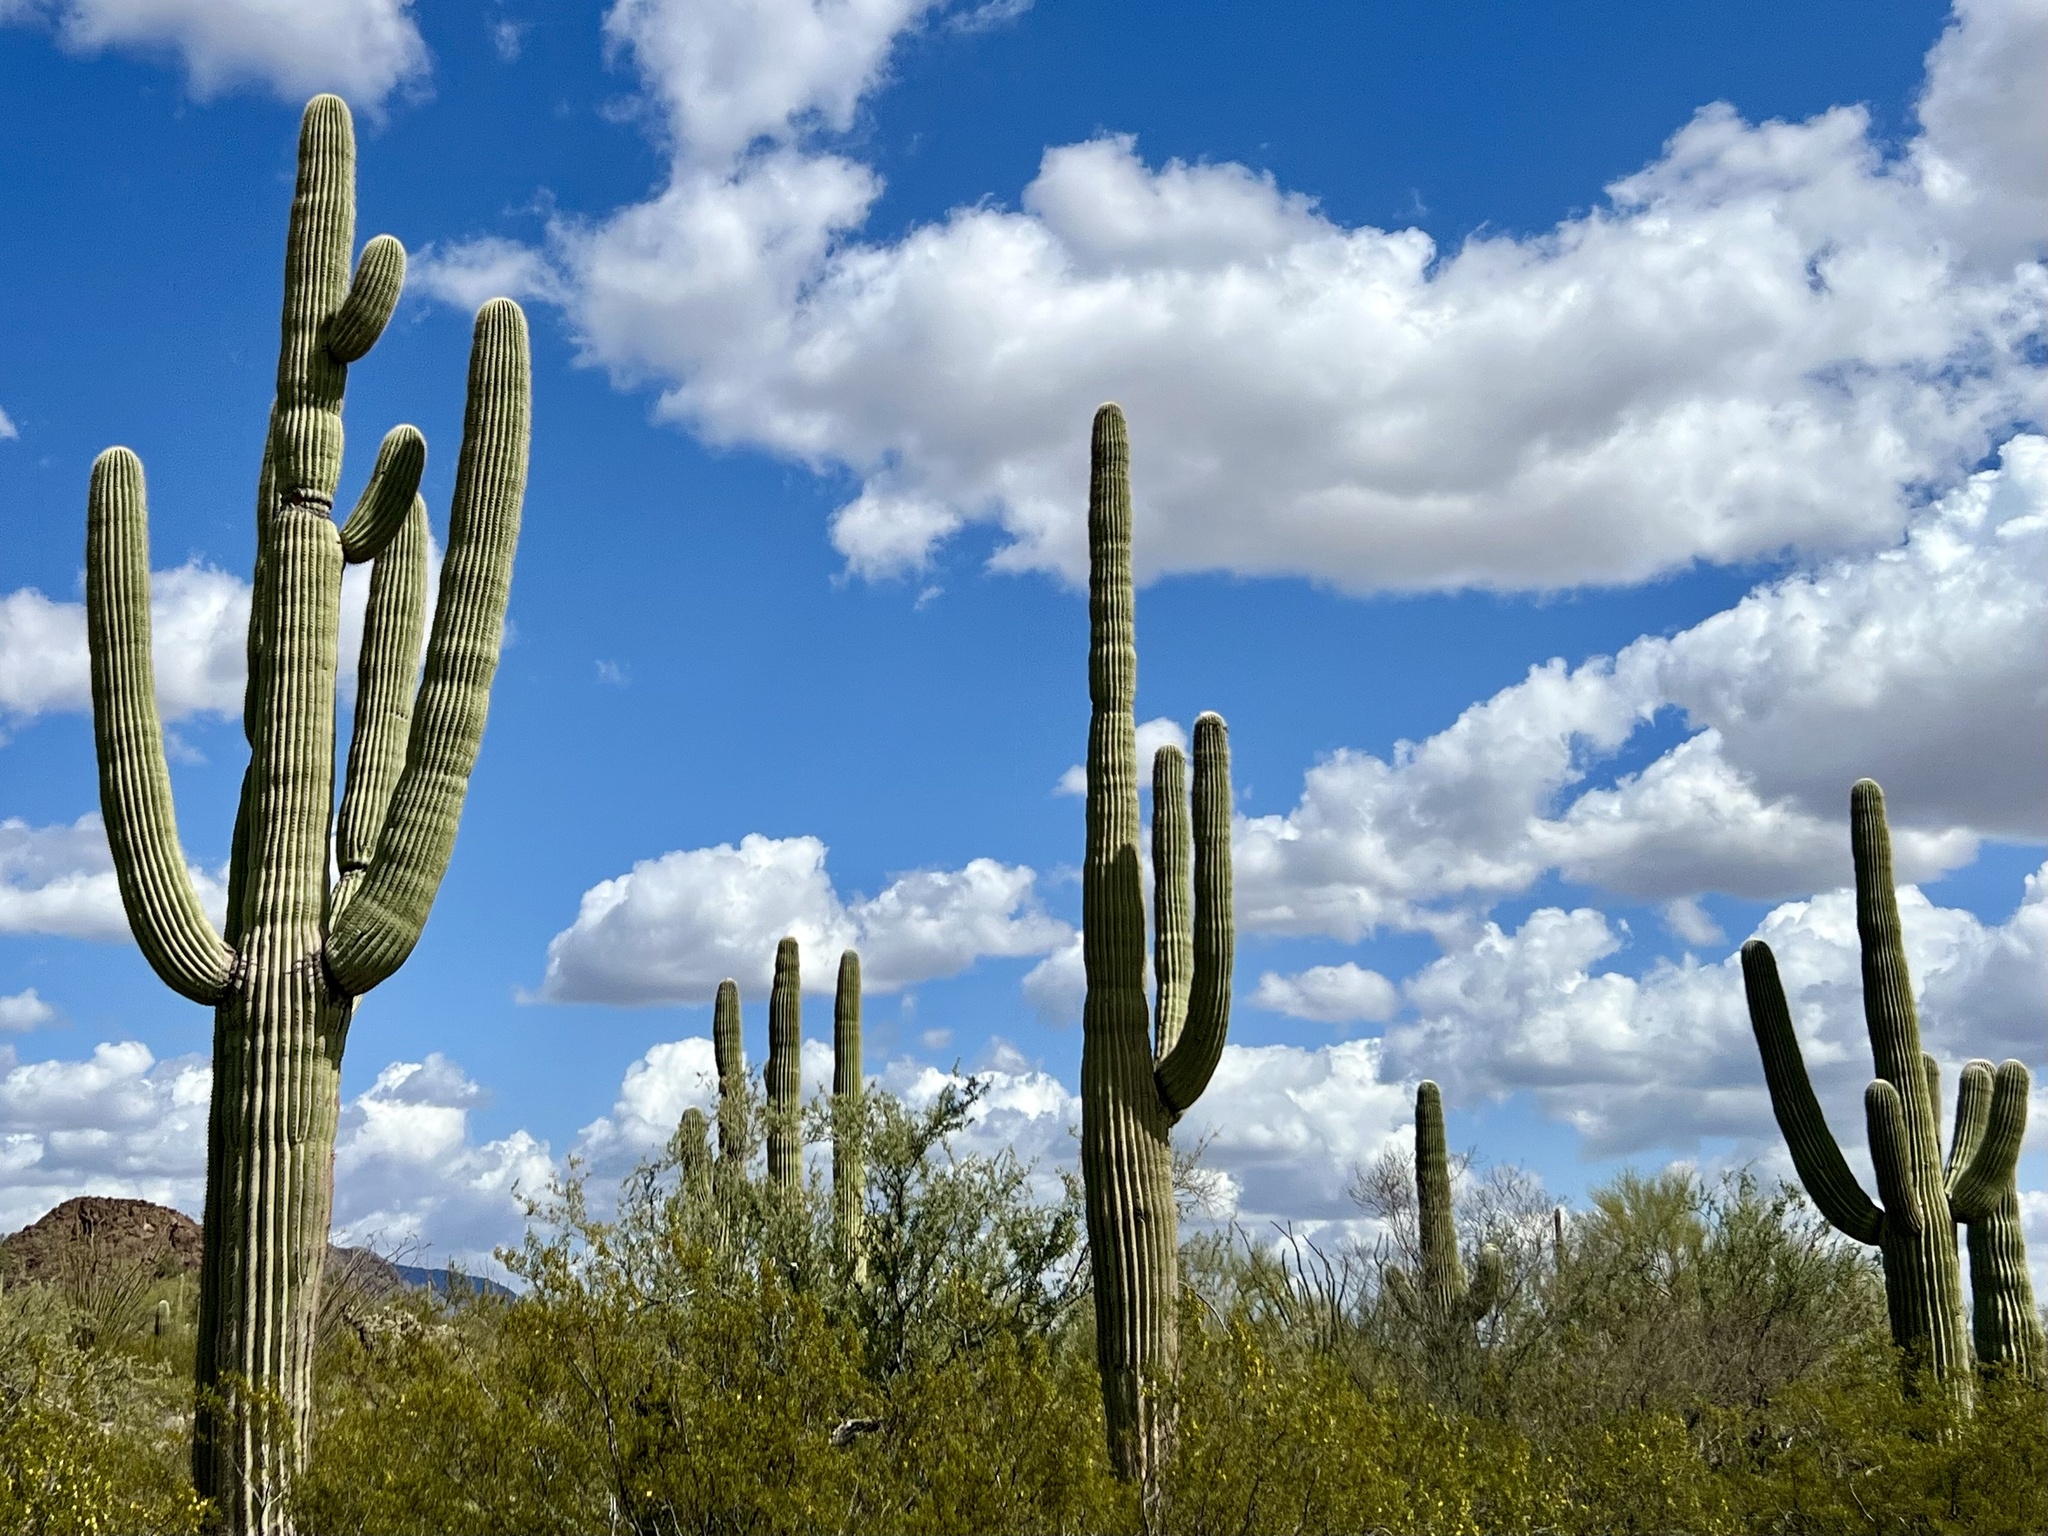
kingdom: Plantae
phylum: Tracheophyta
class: Magnoliopsida
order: Caryophyllales
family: Cactaceae
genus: Carnegiea
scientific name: Carnegiea gigantea
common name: Saguaro
